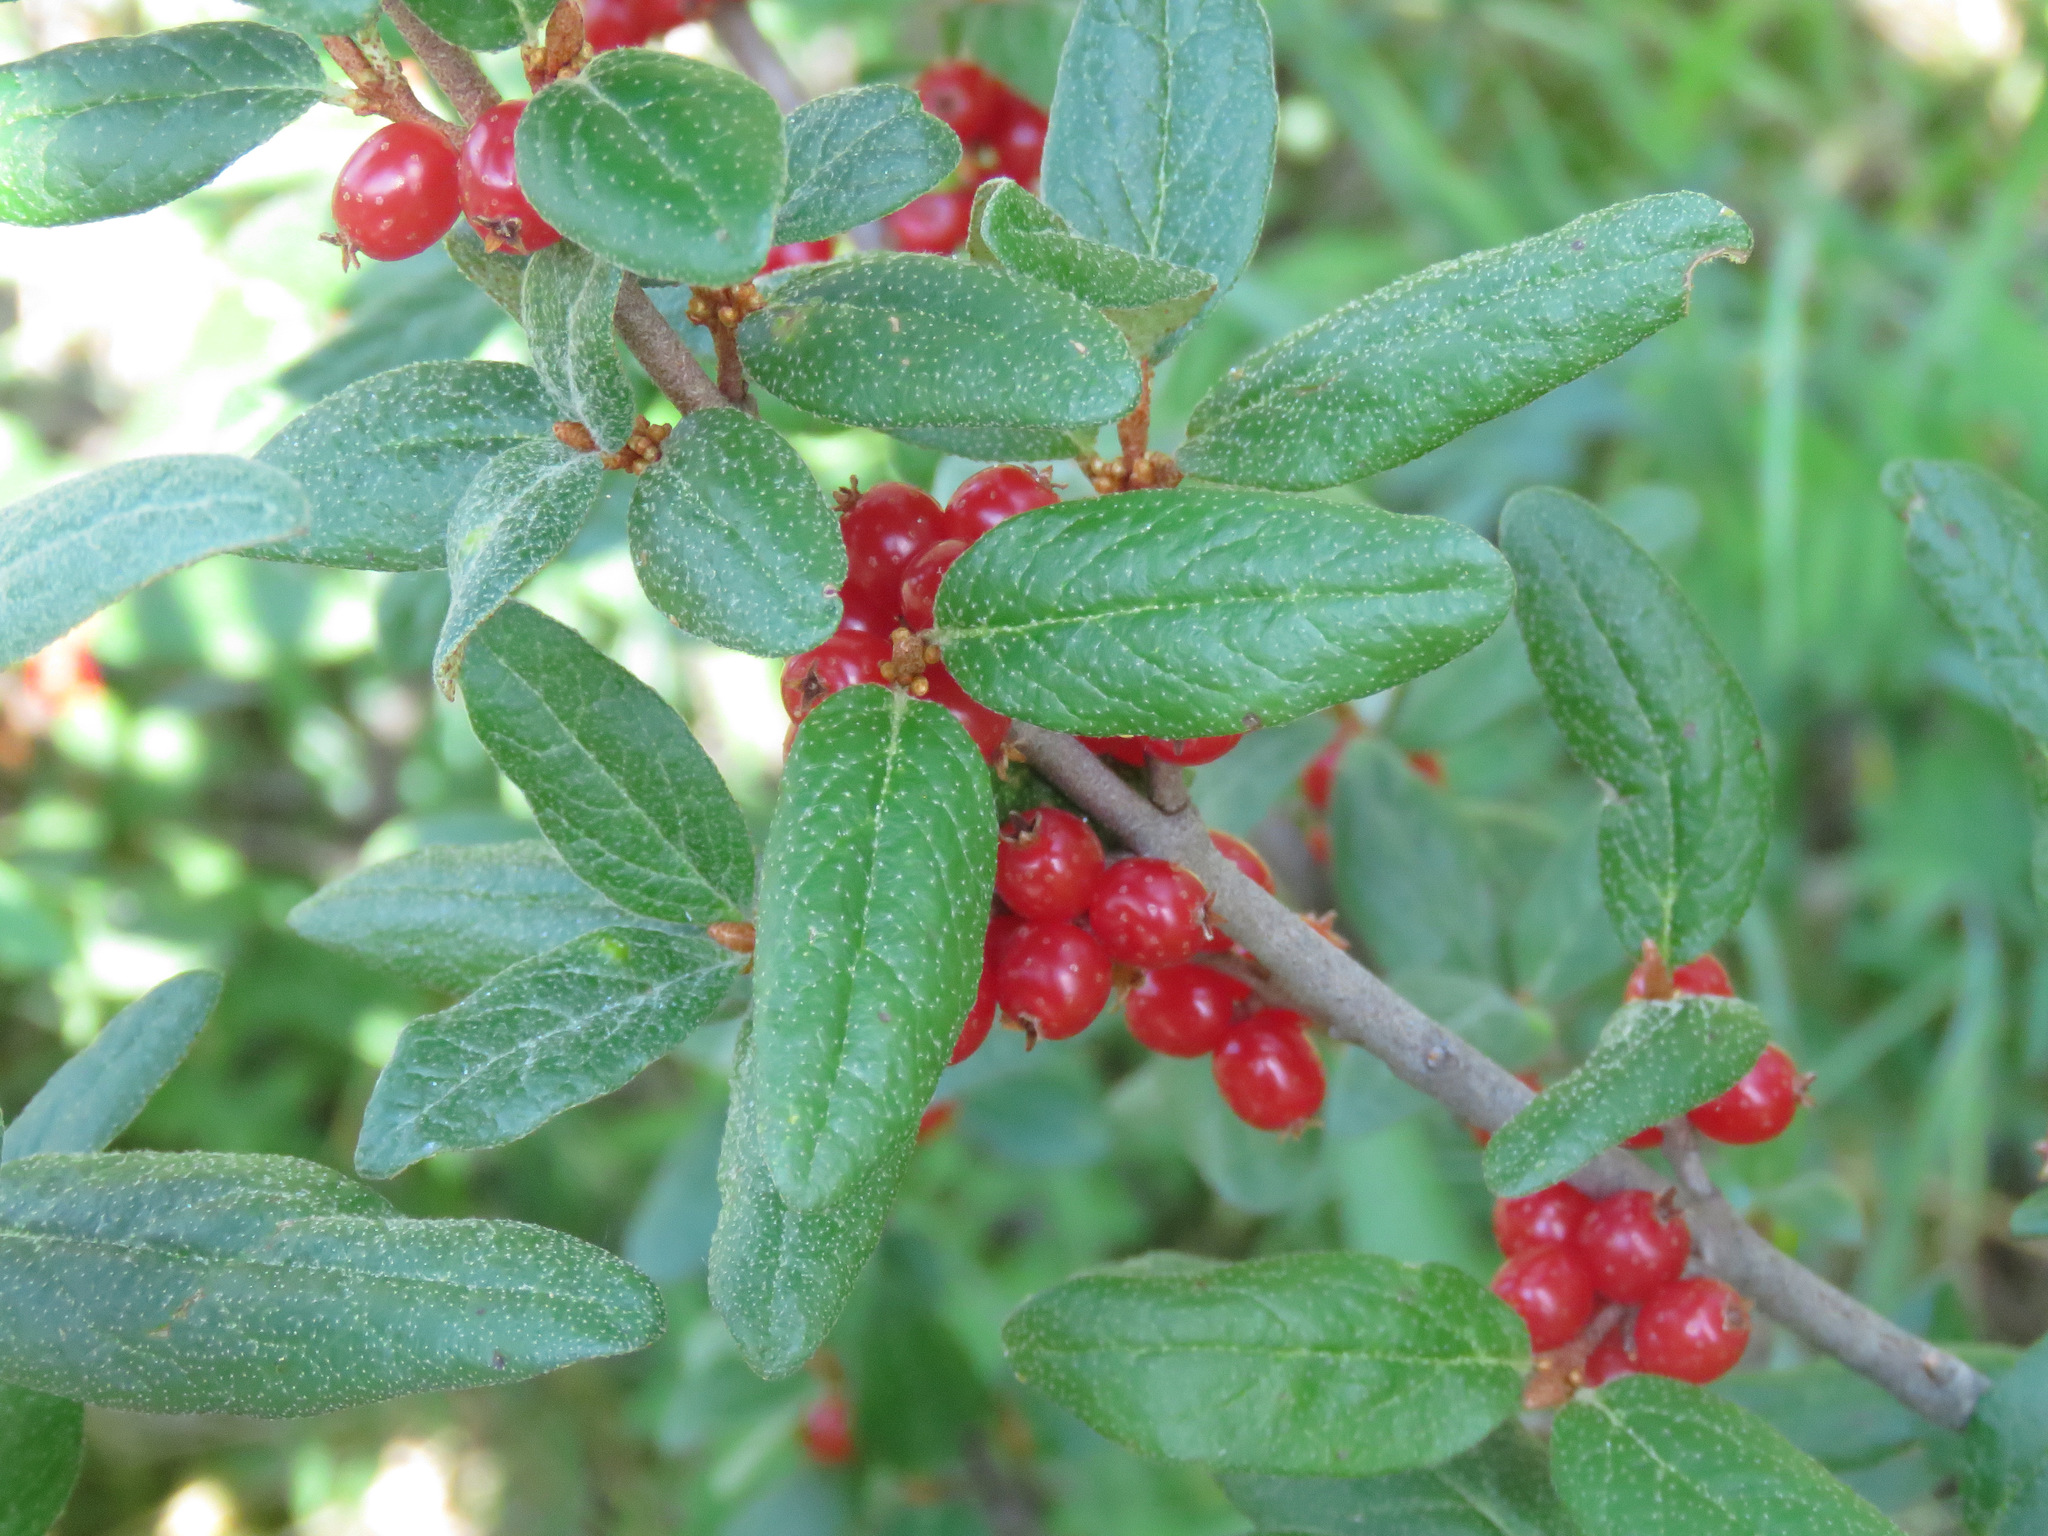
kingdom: Plantae
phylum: Tracheophyta
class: Magnoliopsida
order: Rosales
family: Elaeagnaceae
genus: Shepherdia
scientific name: Shepherdia canadensis
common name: Soapberry
